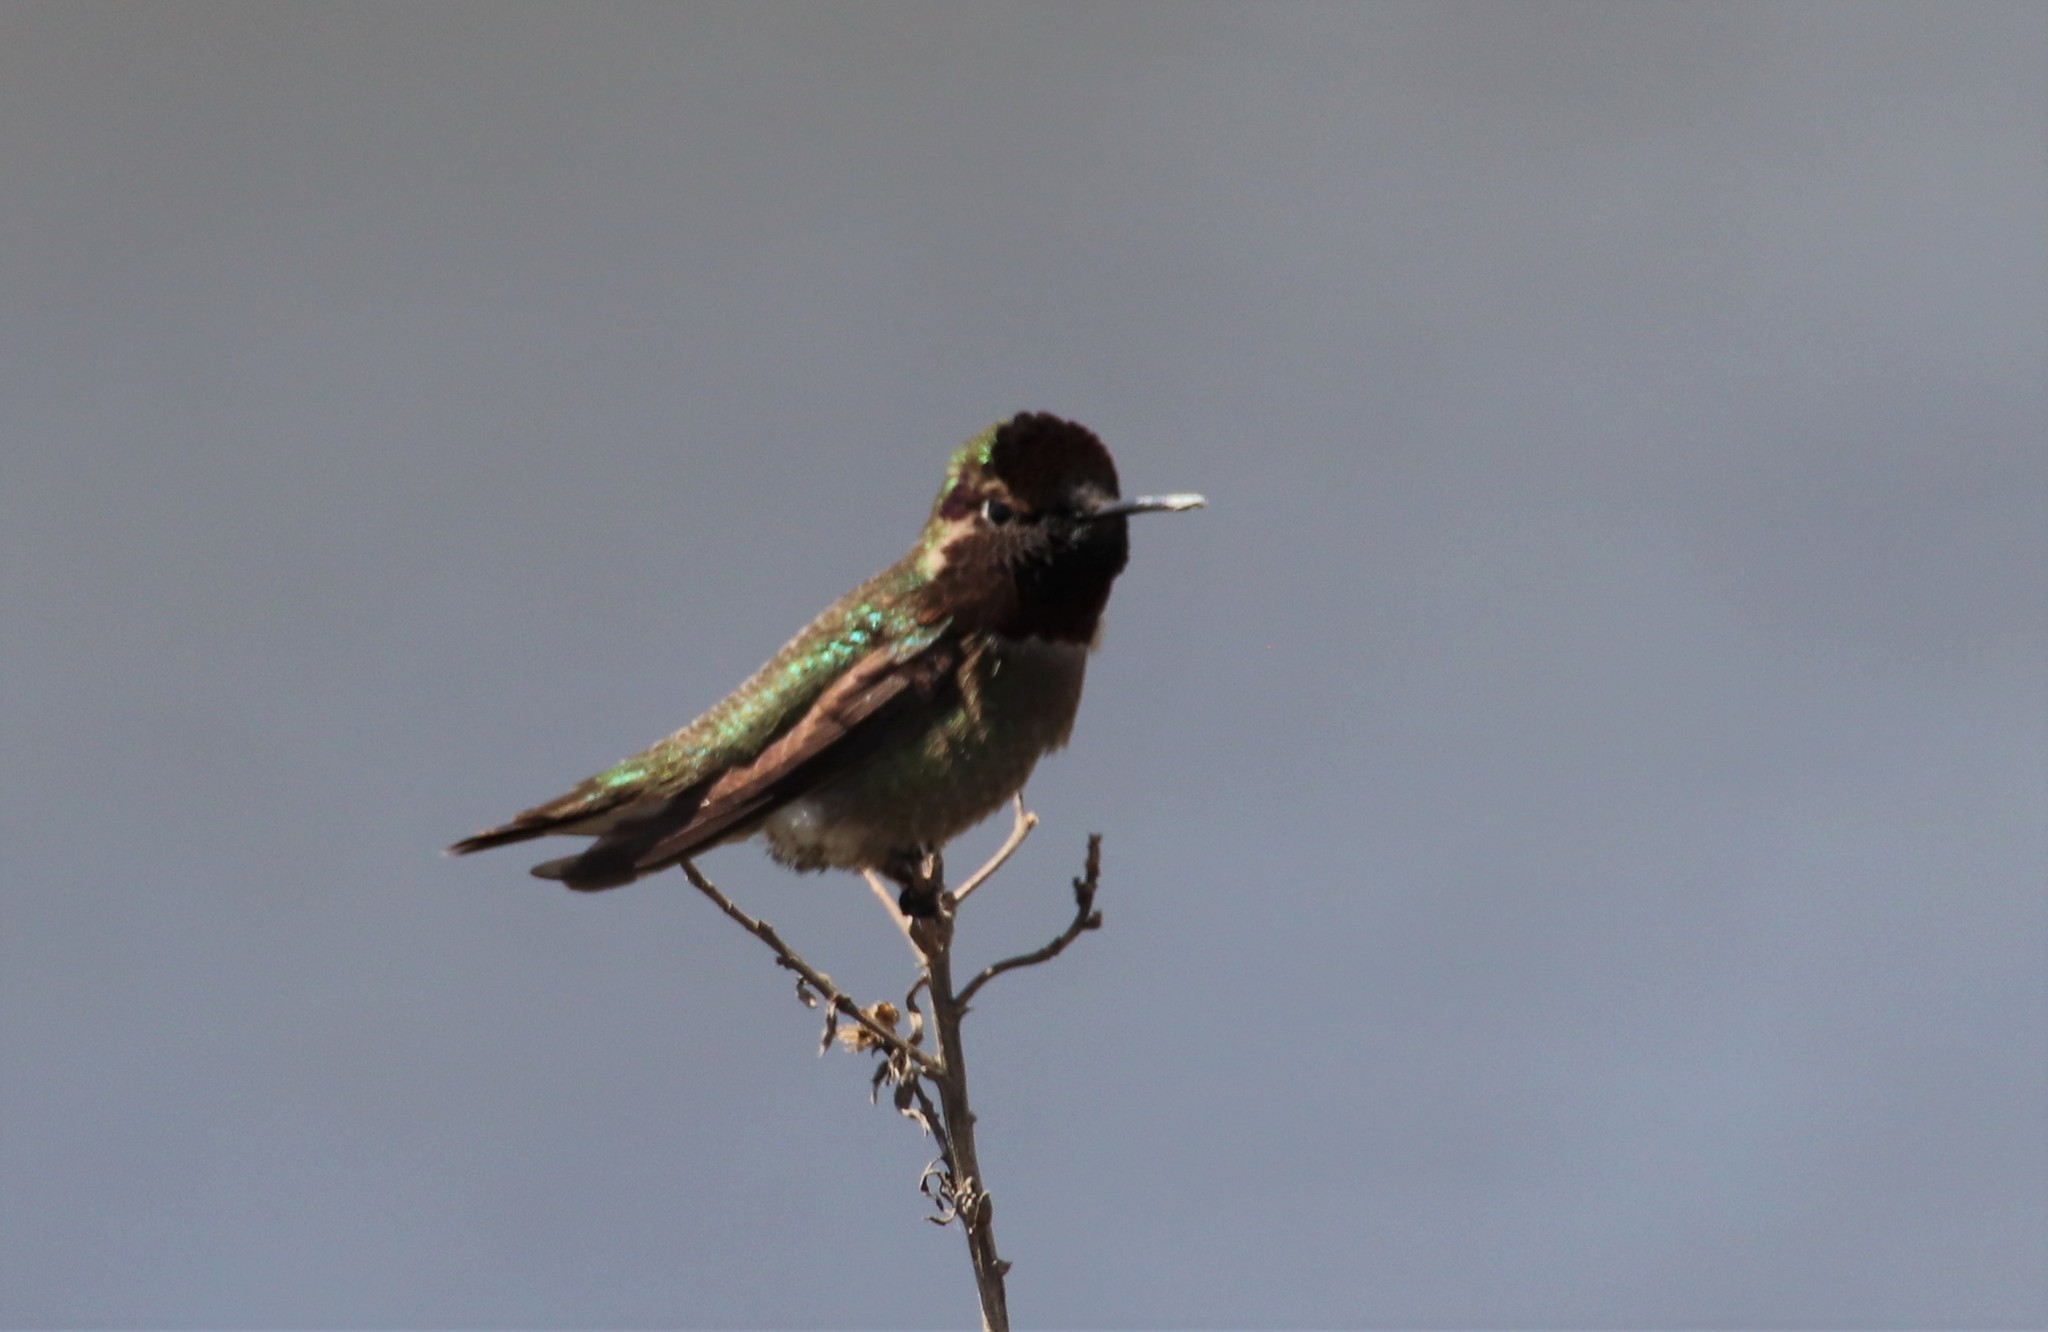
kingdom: Animalia
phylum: Chordata
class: Aves
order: Apodiformes
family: Trochilidae
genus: Calypte
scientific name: Calypte anna
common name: Anna's hummingbird
